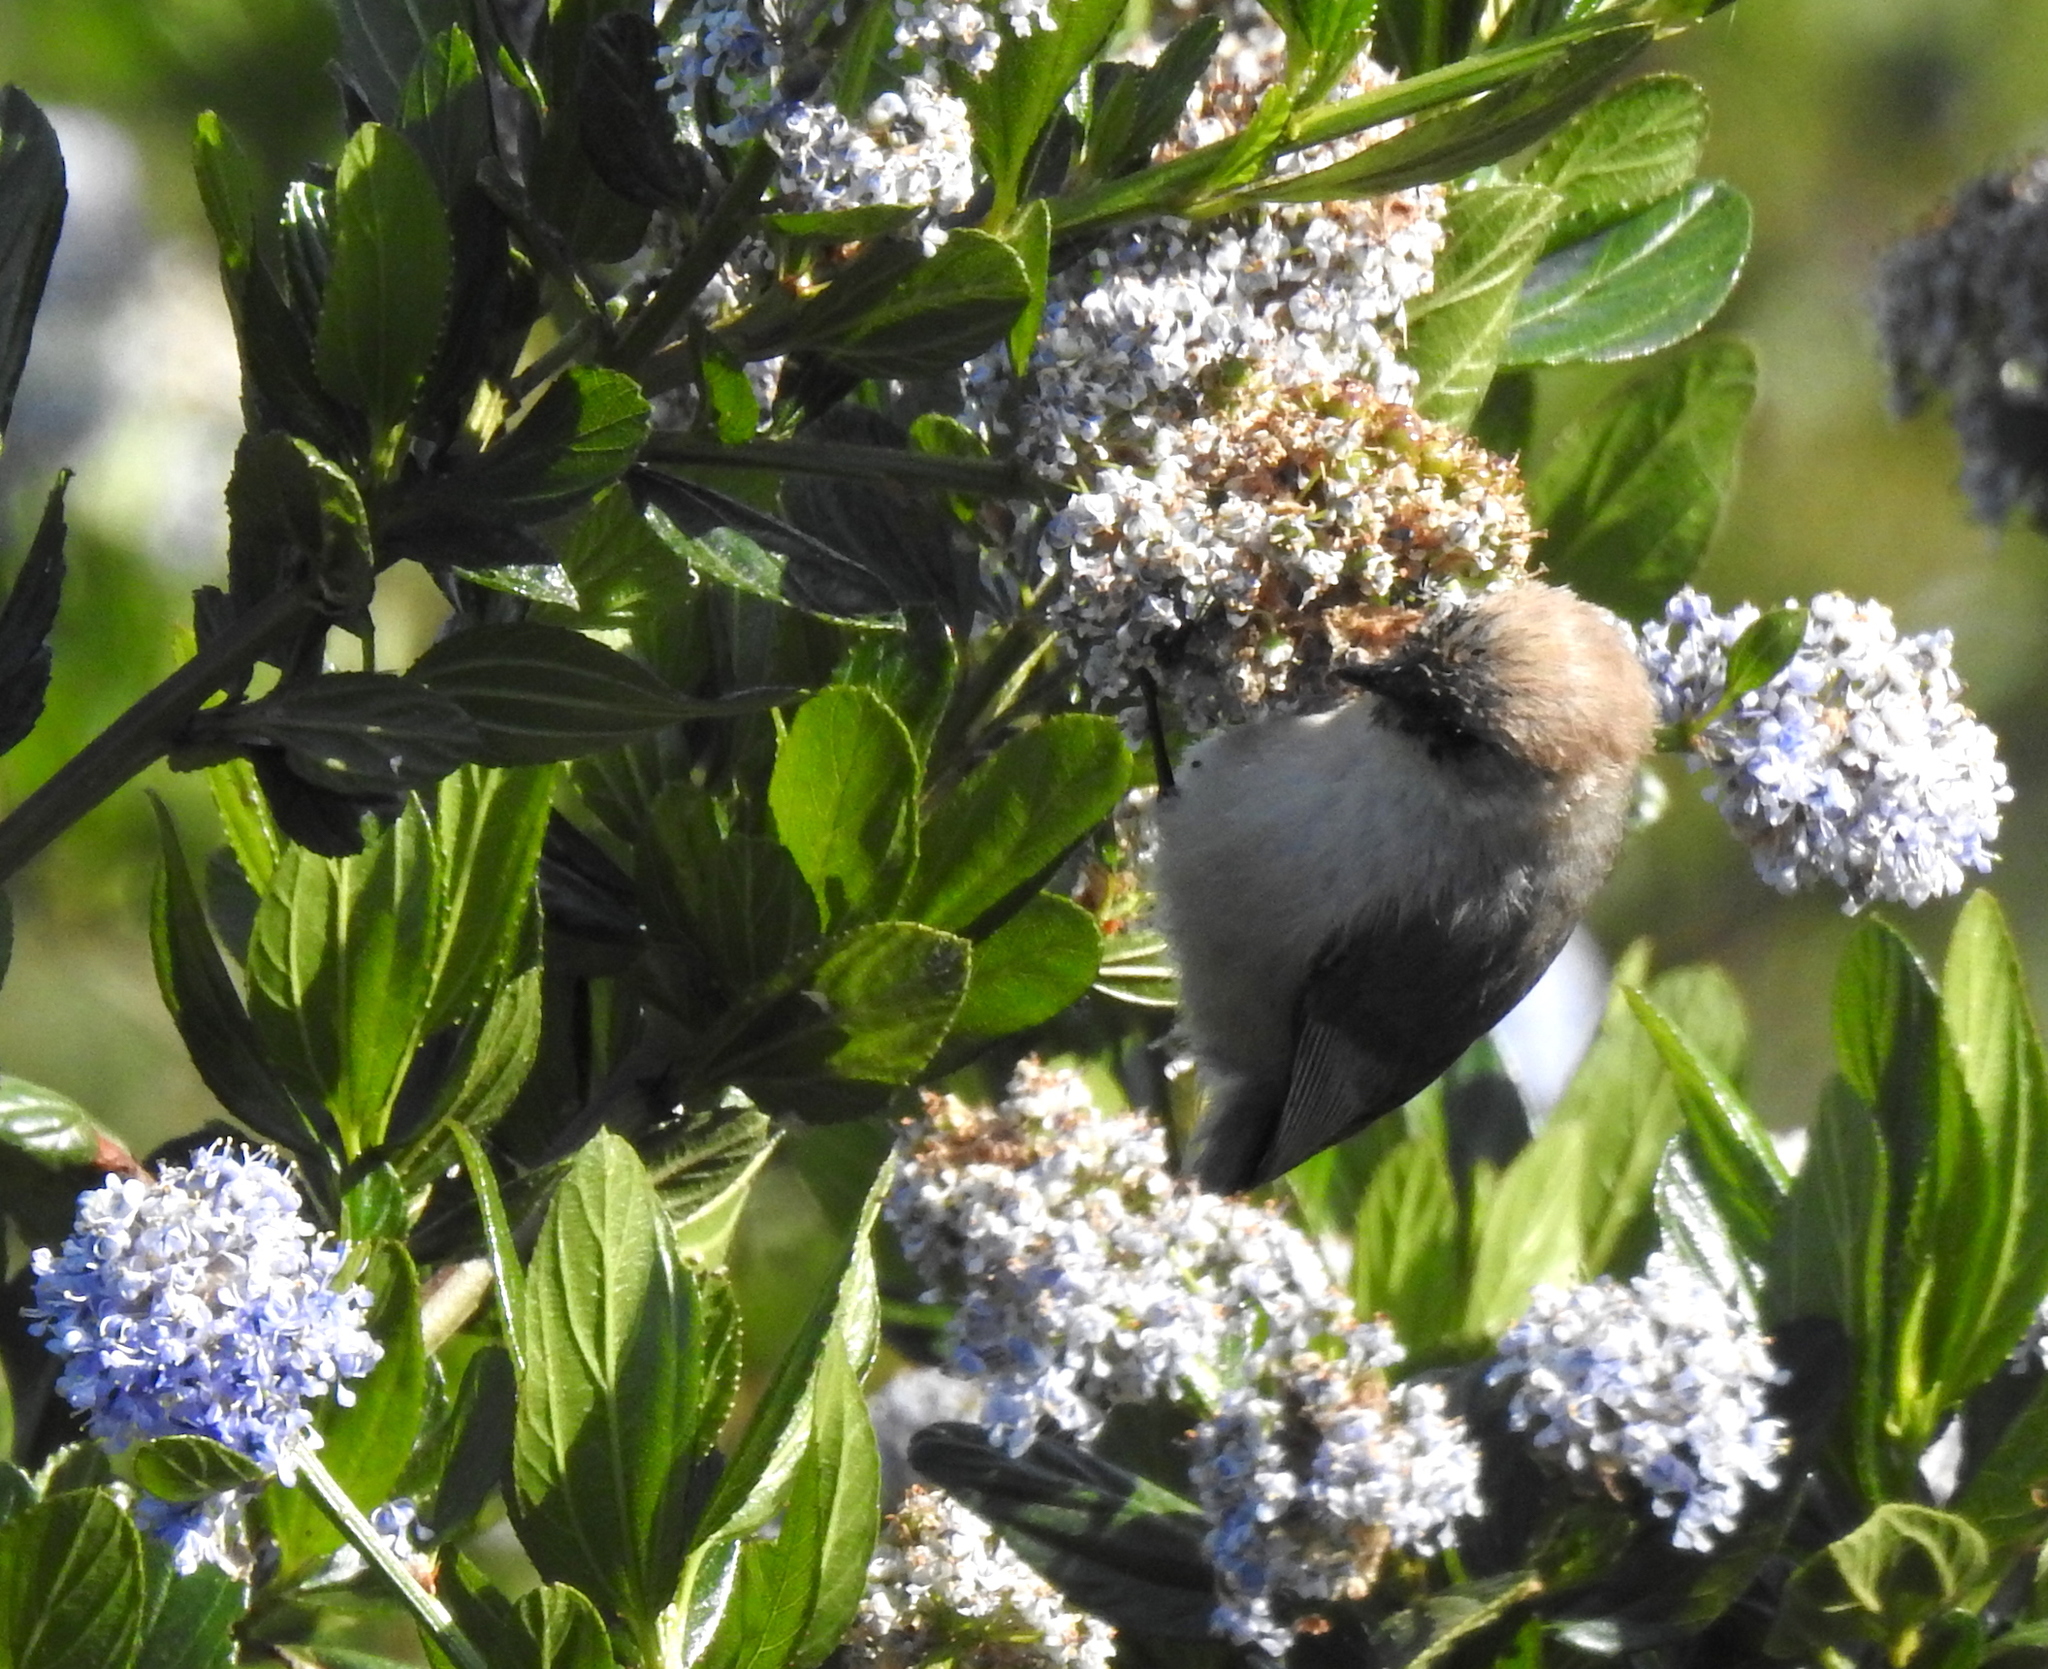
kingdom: Animalia
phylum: Chordata
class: Aves
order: Passeriformes
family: Aegithalidae
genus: Psaltriparus
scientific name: Psaltriparus minimus
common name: American bushtit
